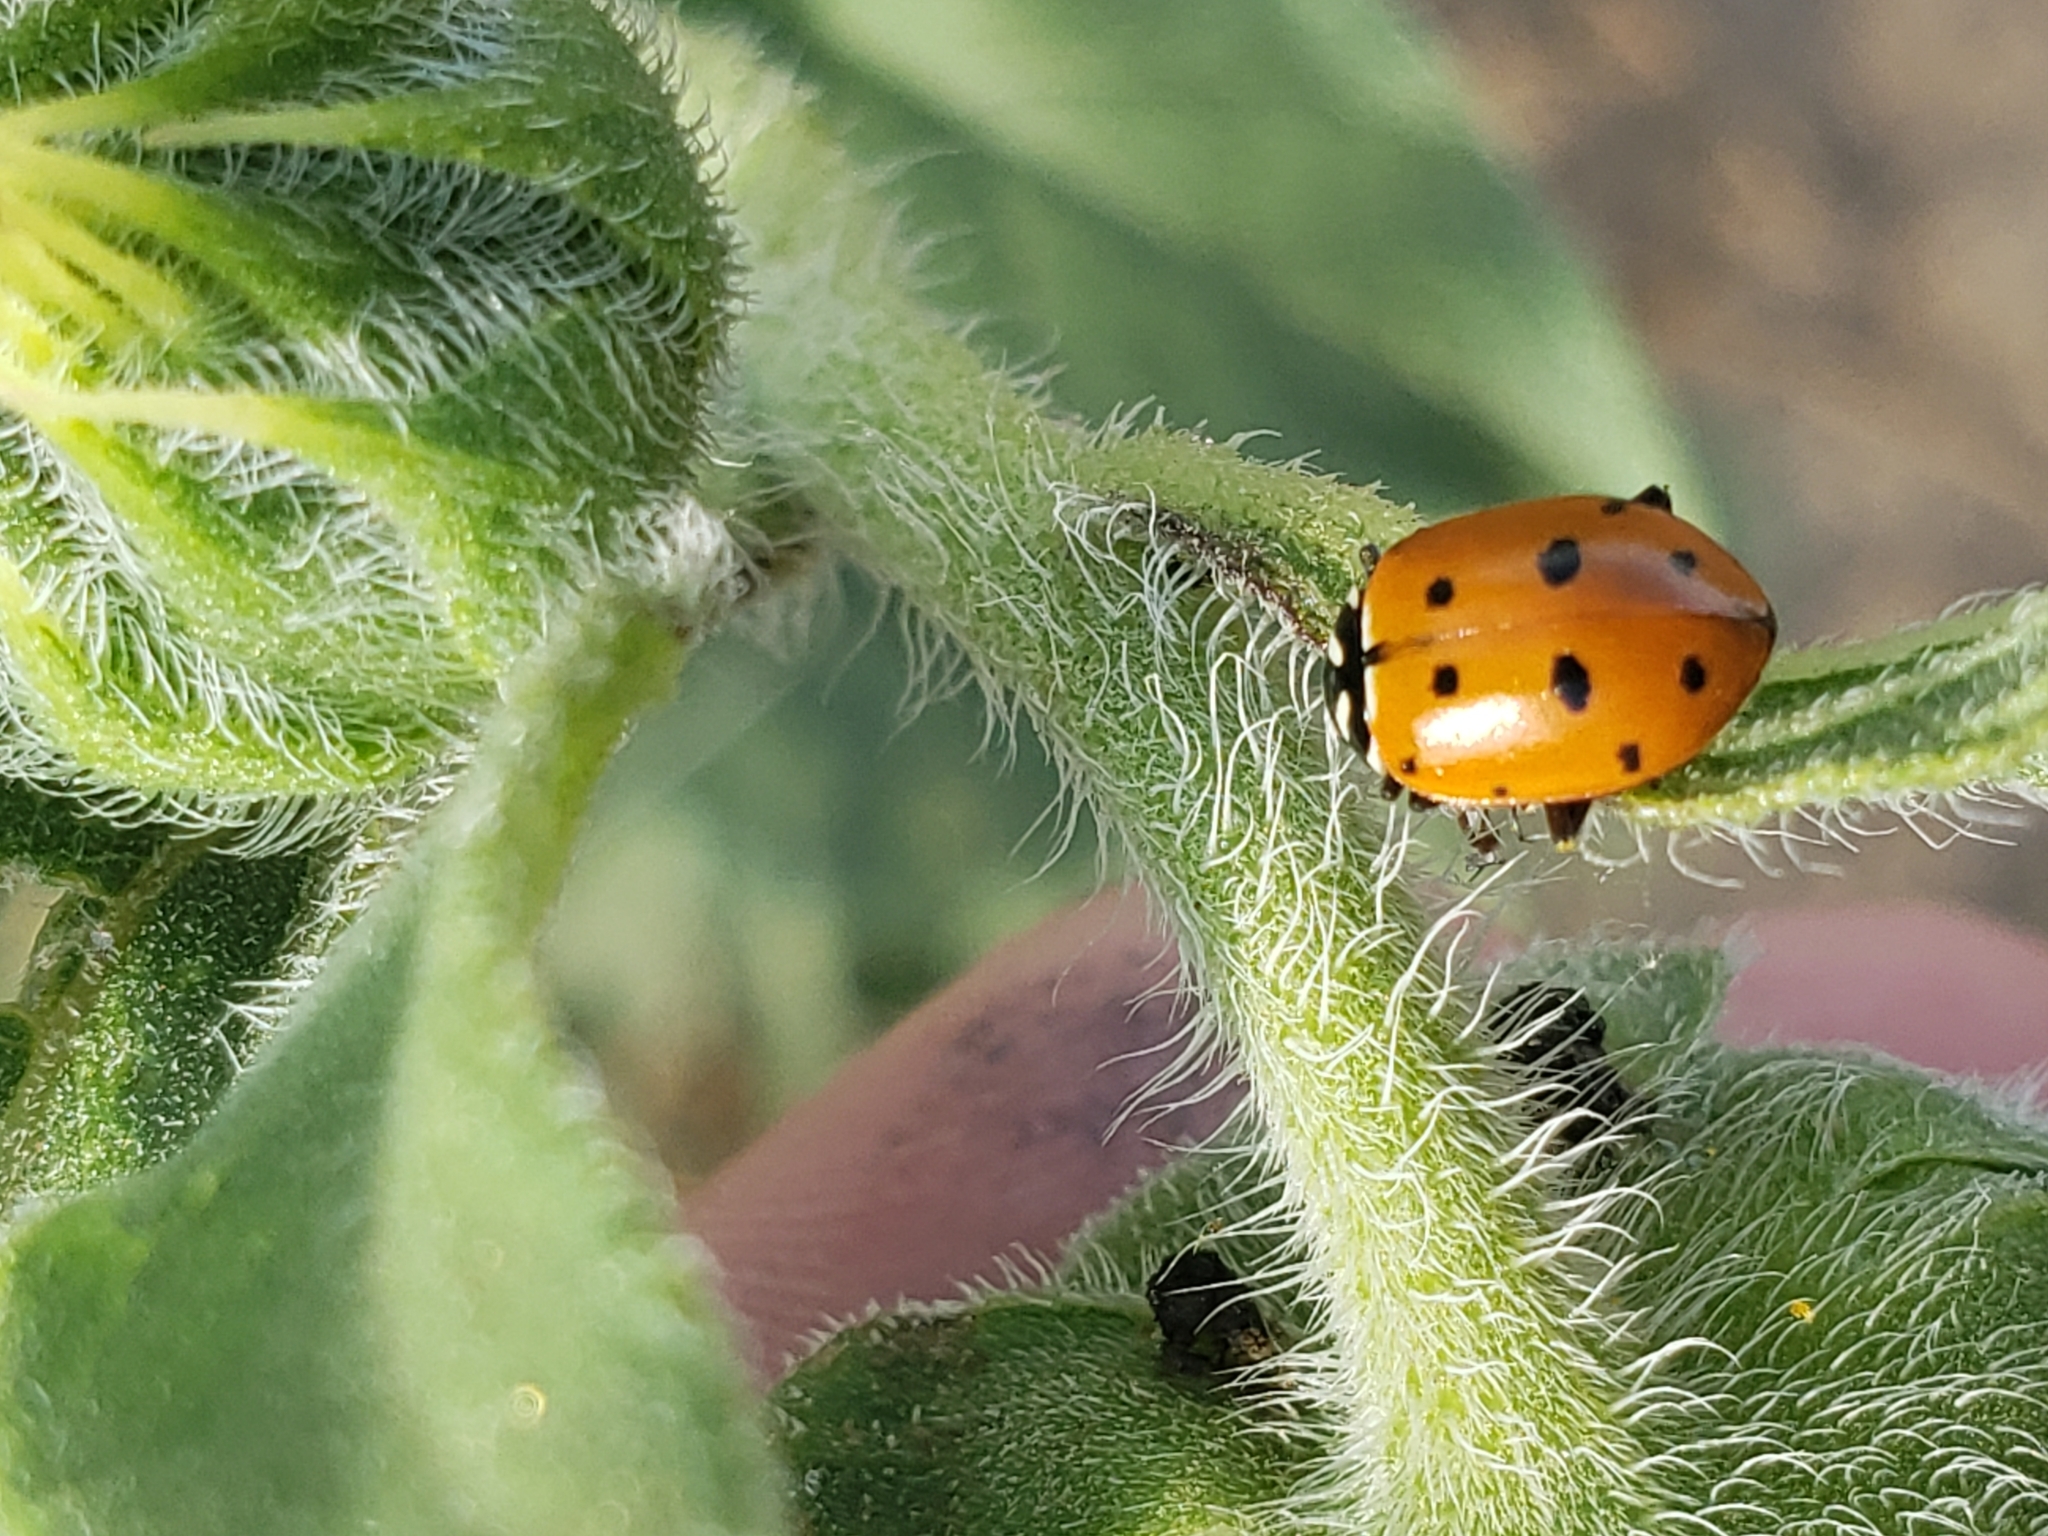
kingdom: Animalia
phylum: Arthropoda
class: Insecta
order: Coleoptera
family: Coccinellidae
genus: Hippodamia
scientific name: Hippodamia convergens
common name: Convergent lady beetle
